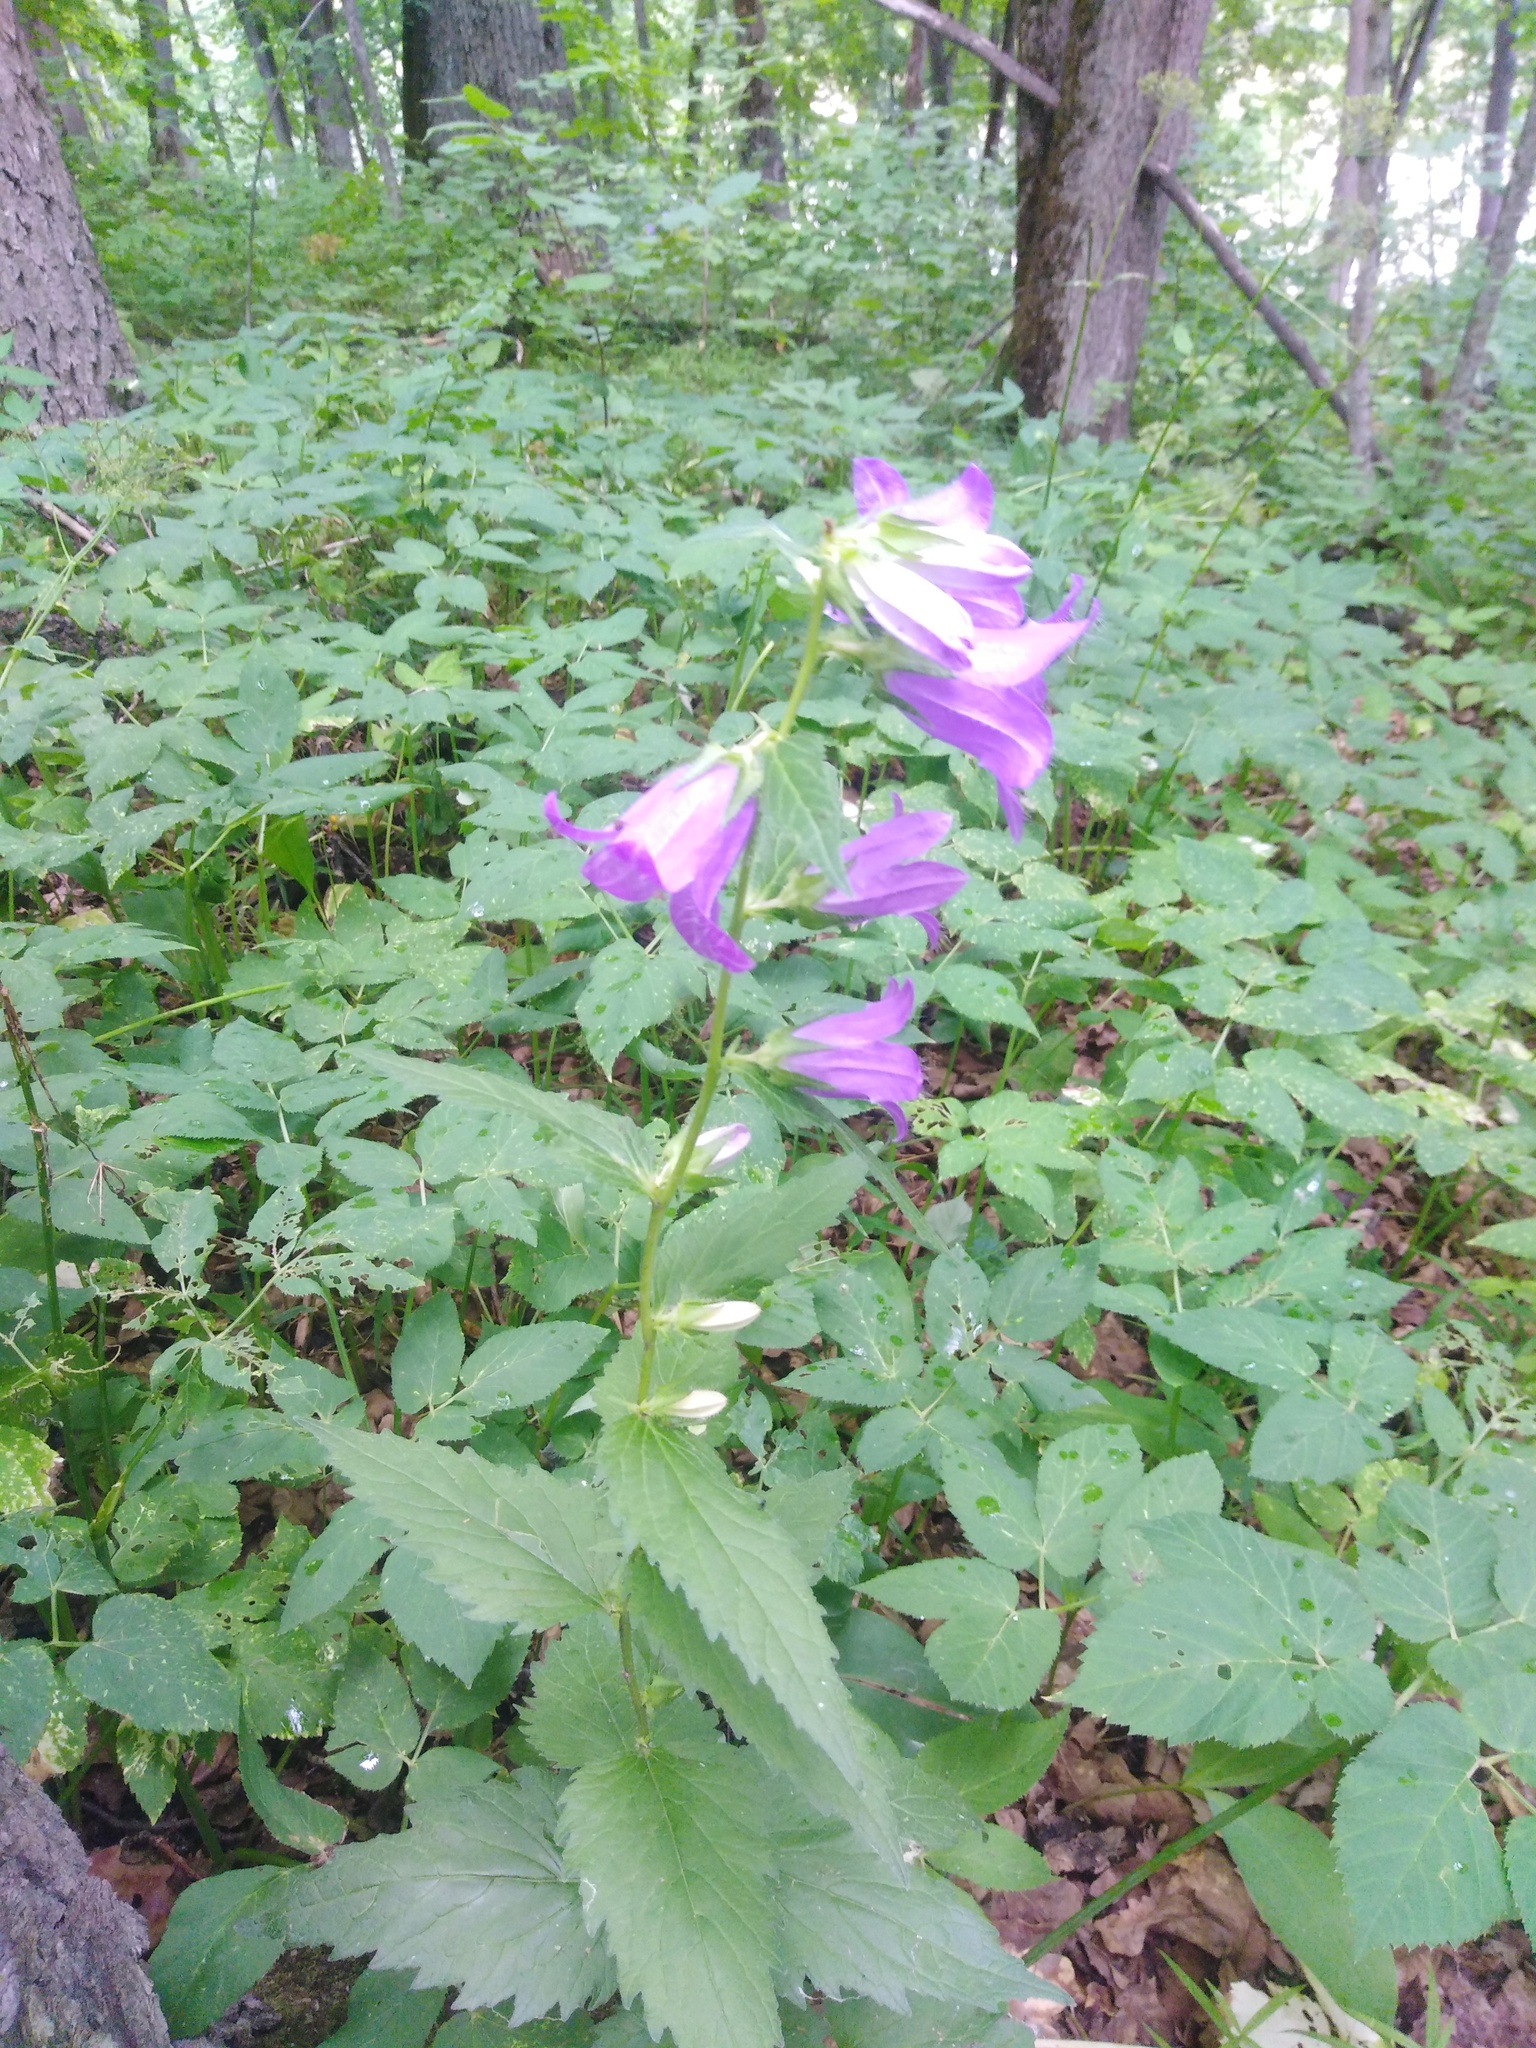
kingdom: Plantae
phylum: Tracheophyta
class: Magnoliopsida
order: Asterales
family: Campanulaceae
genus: Campanula
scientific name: Campanula trachelium
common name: Nettle-leaved bellflower
